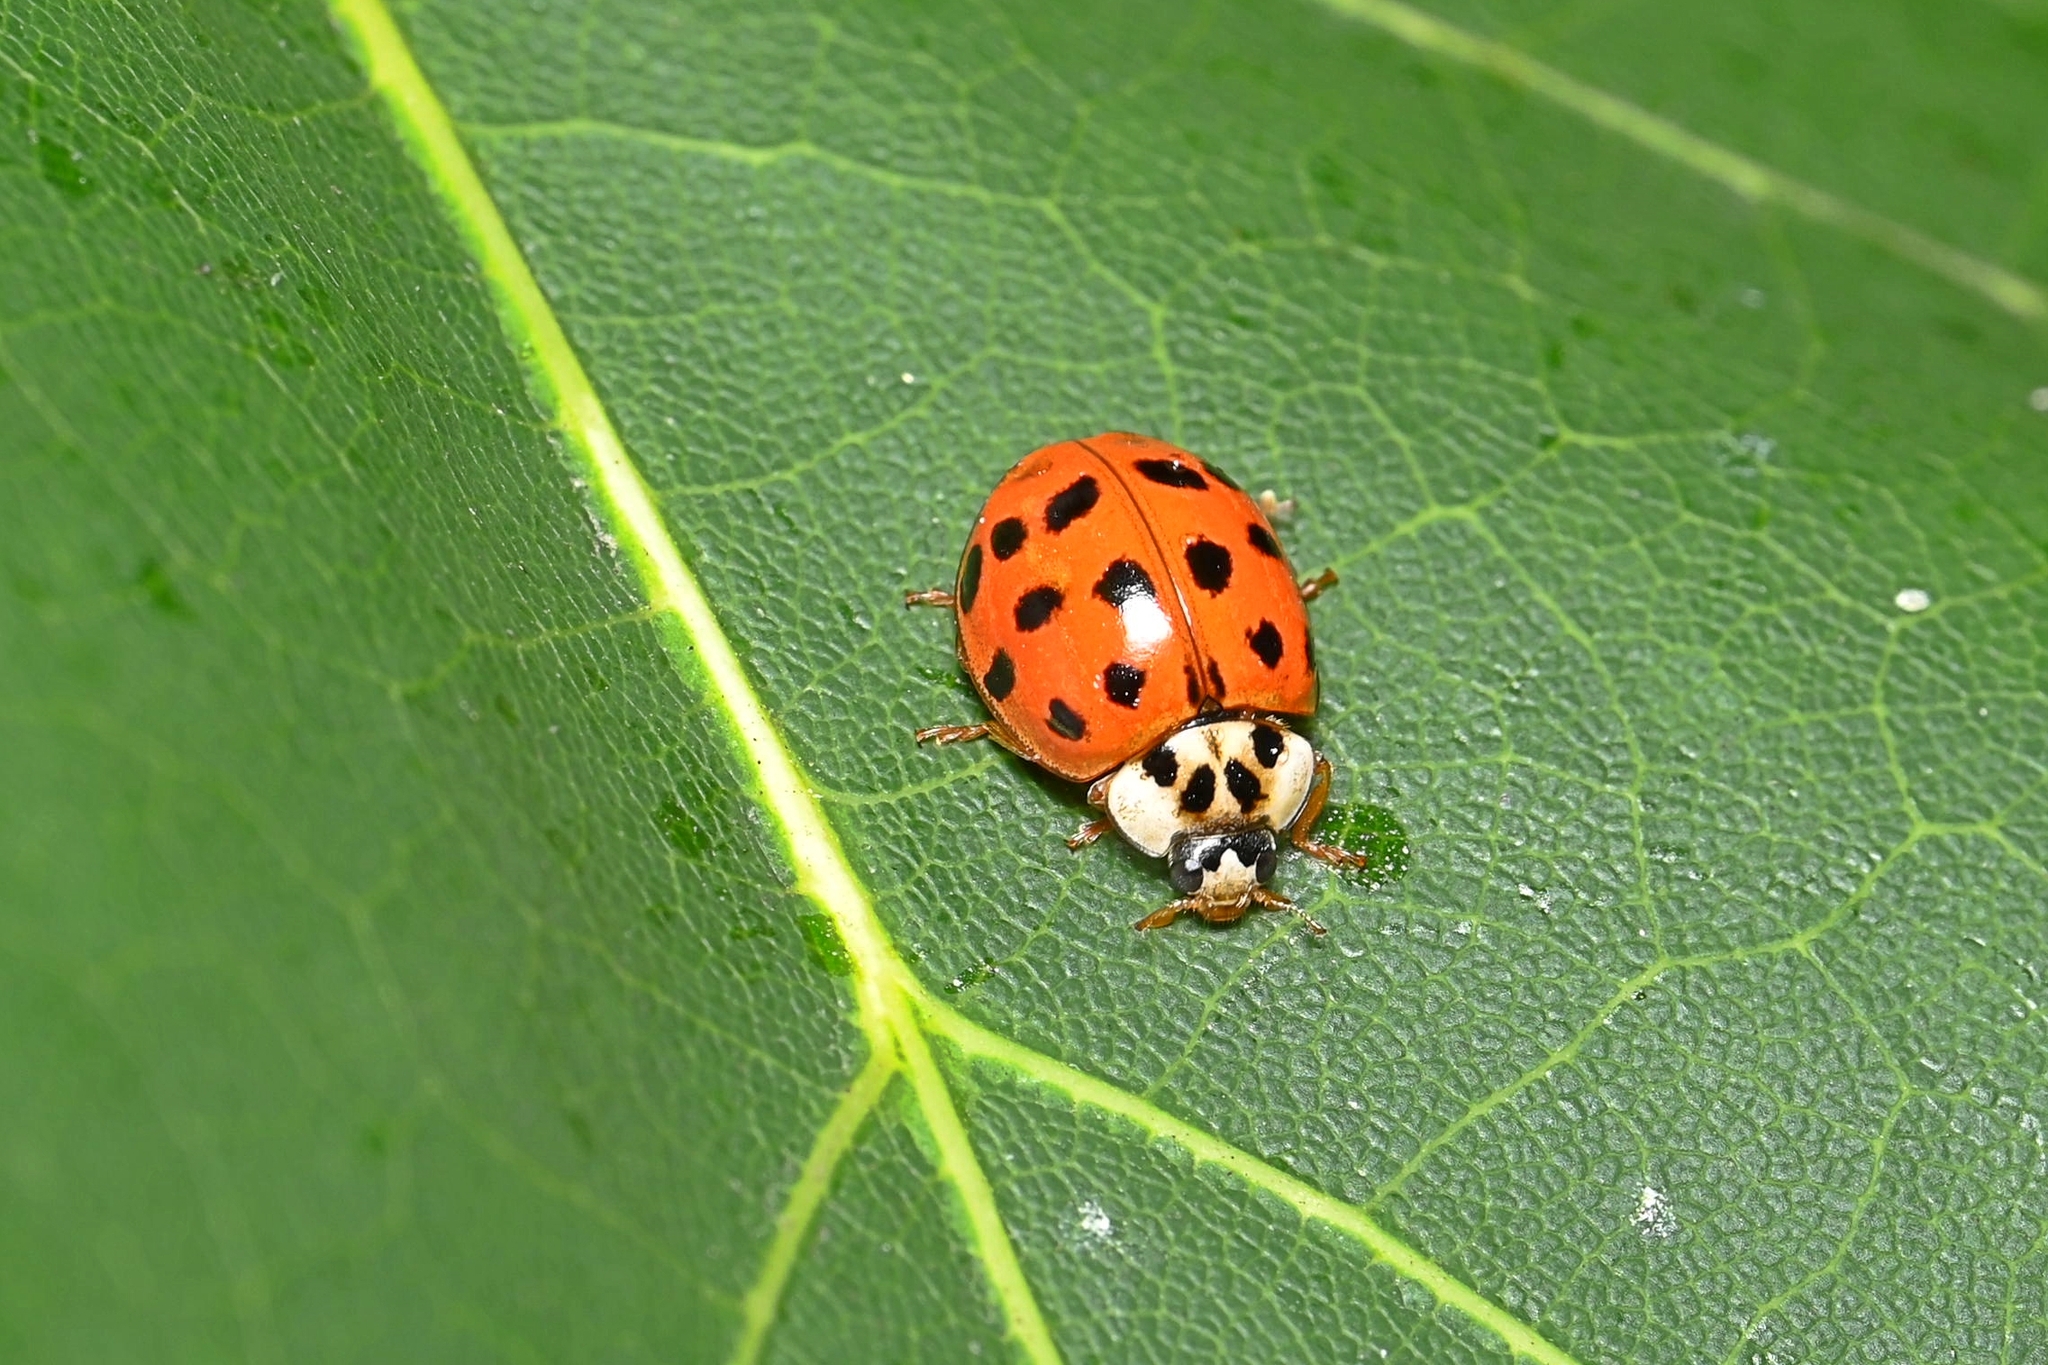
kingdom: Animalia
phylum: Arthropoda
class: Insecta
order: Coleoptera
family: Coccinellidae
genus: Harmonia
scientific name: Harmonia axyridis
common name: Harlequin ladybird
